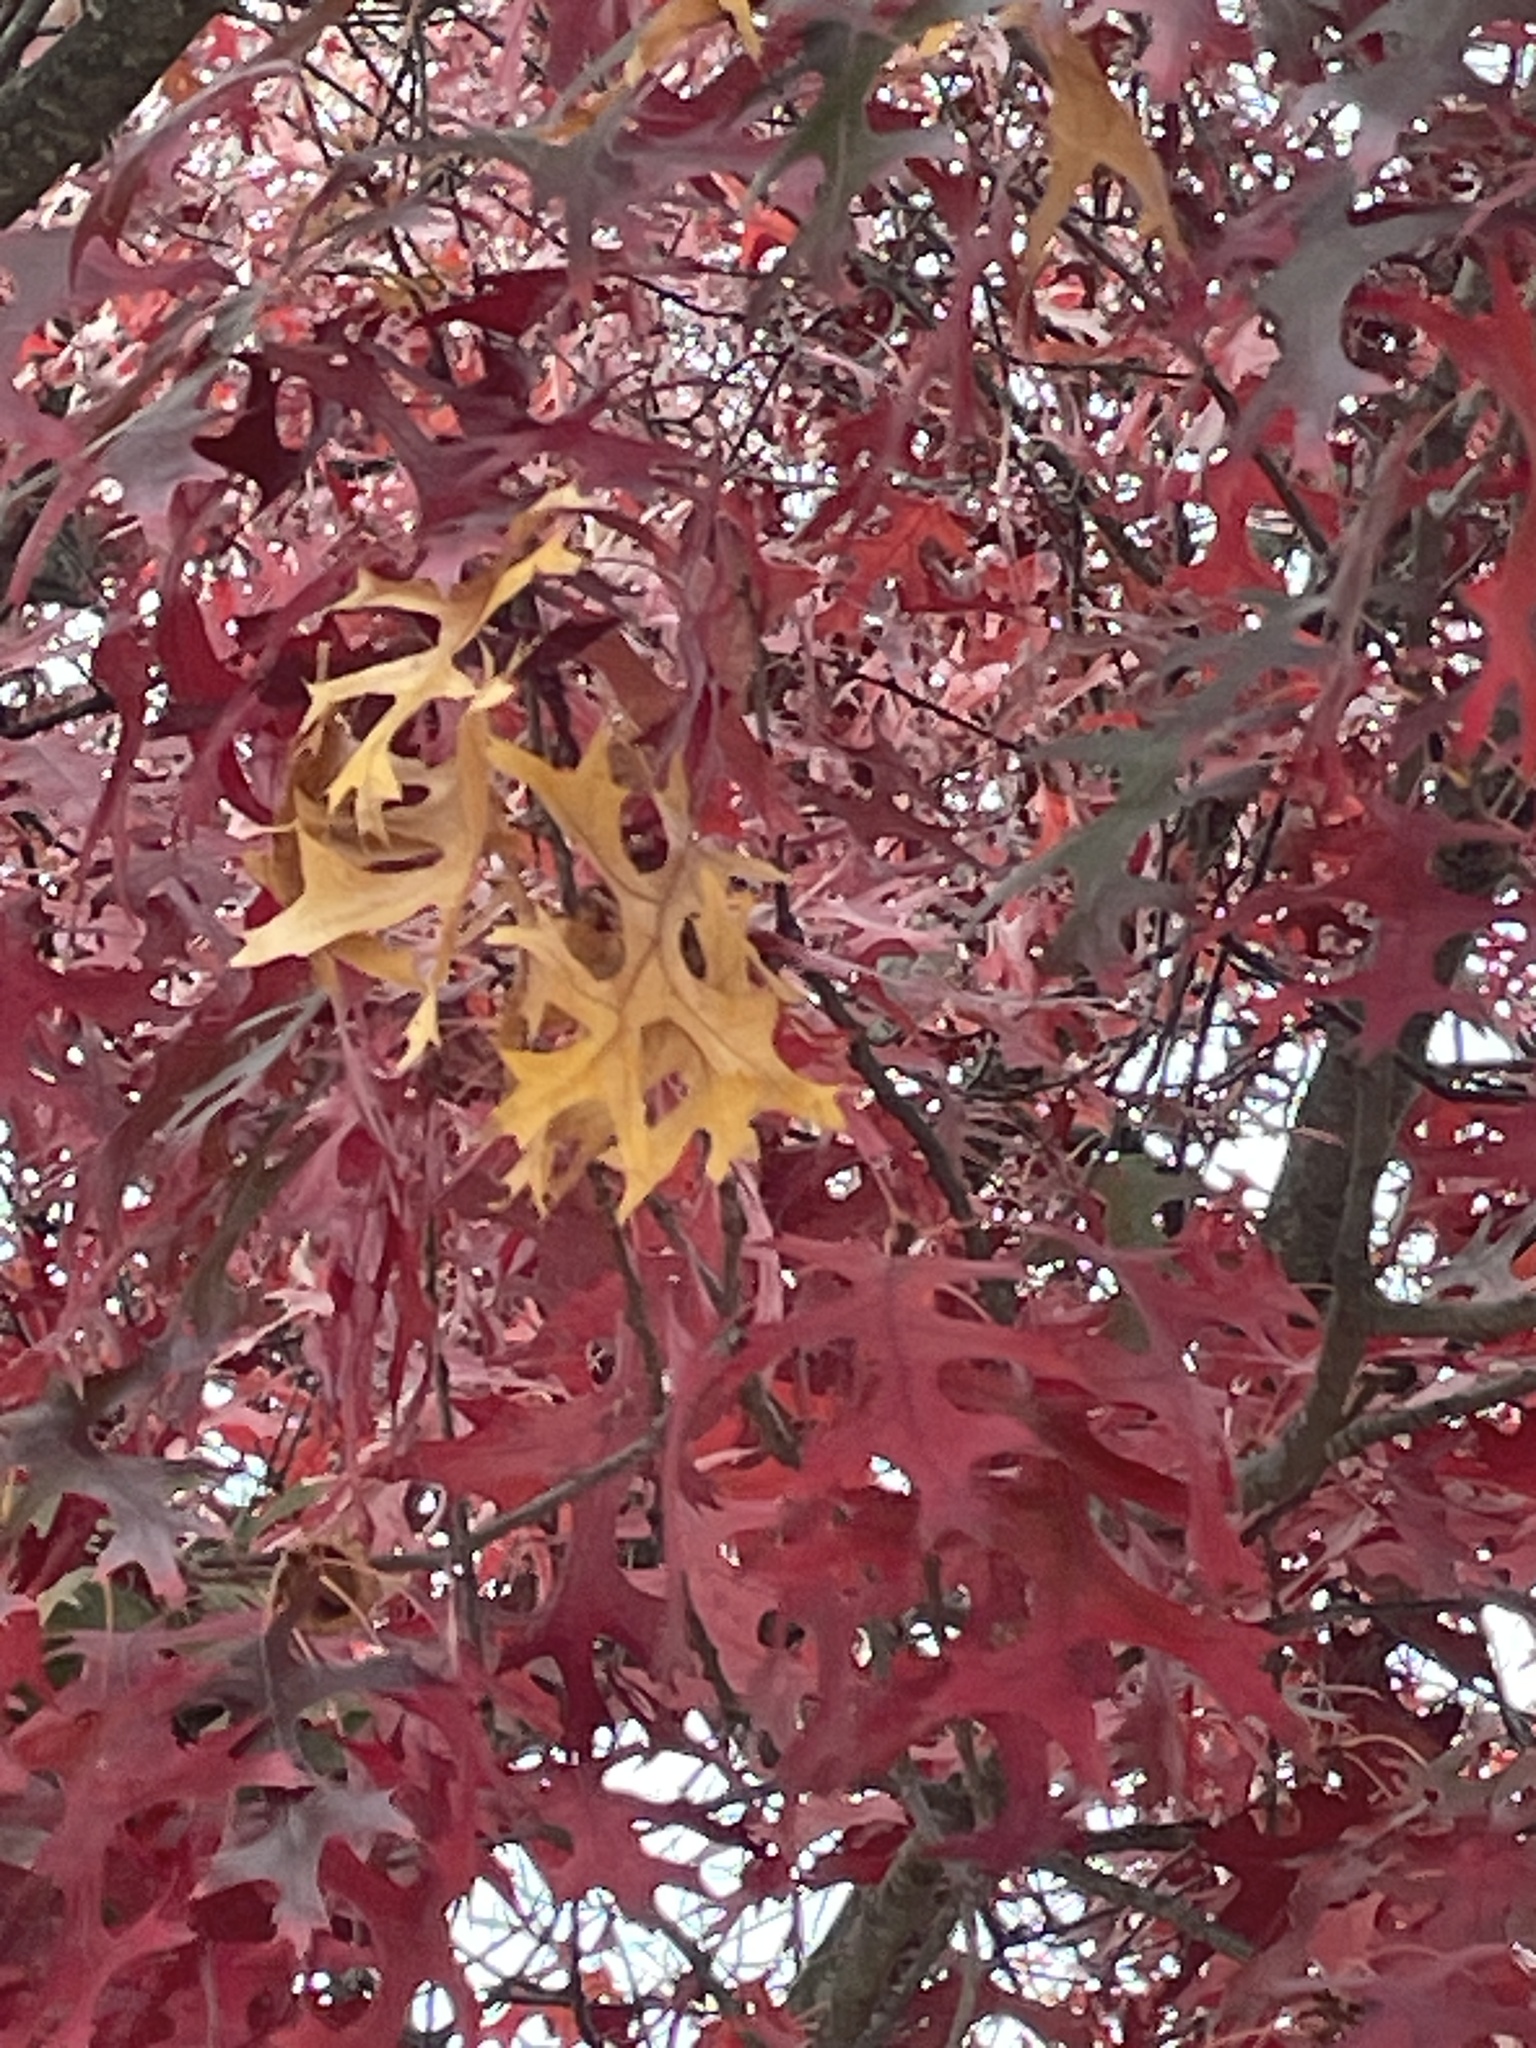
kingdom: Plantae
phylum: Tracheophyta
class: Magnoliopsida
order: Fagales
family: Fagaceae
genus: Quercus
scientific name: Quercus coccinea
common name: Scarlet oak
